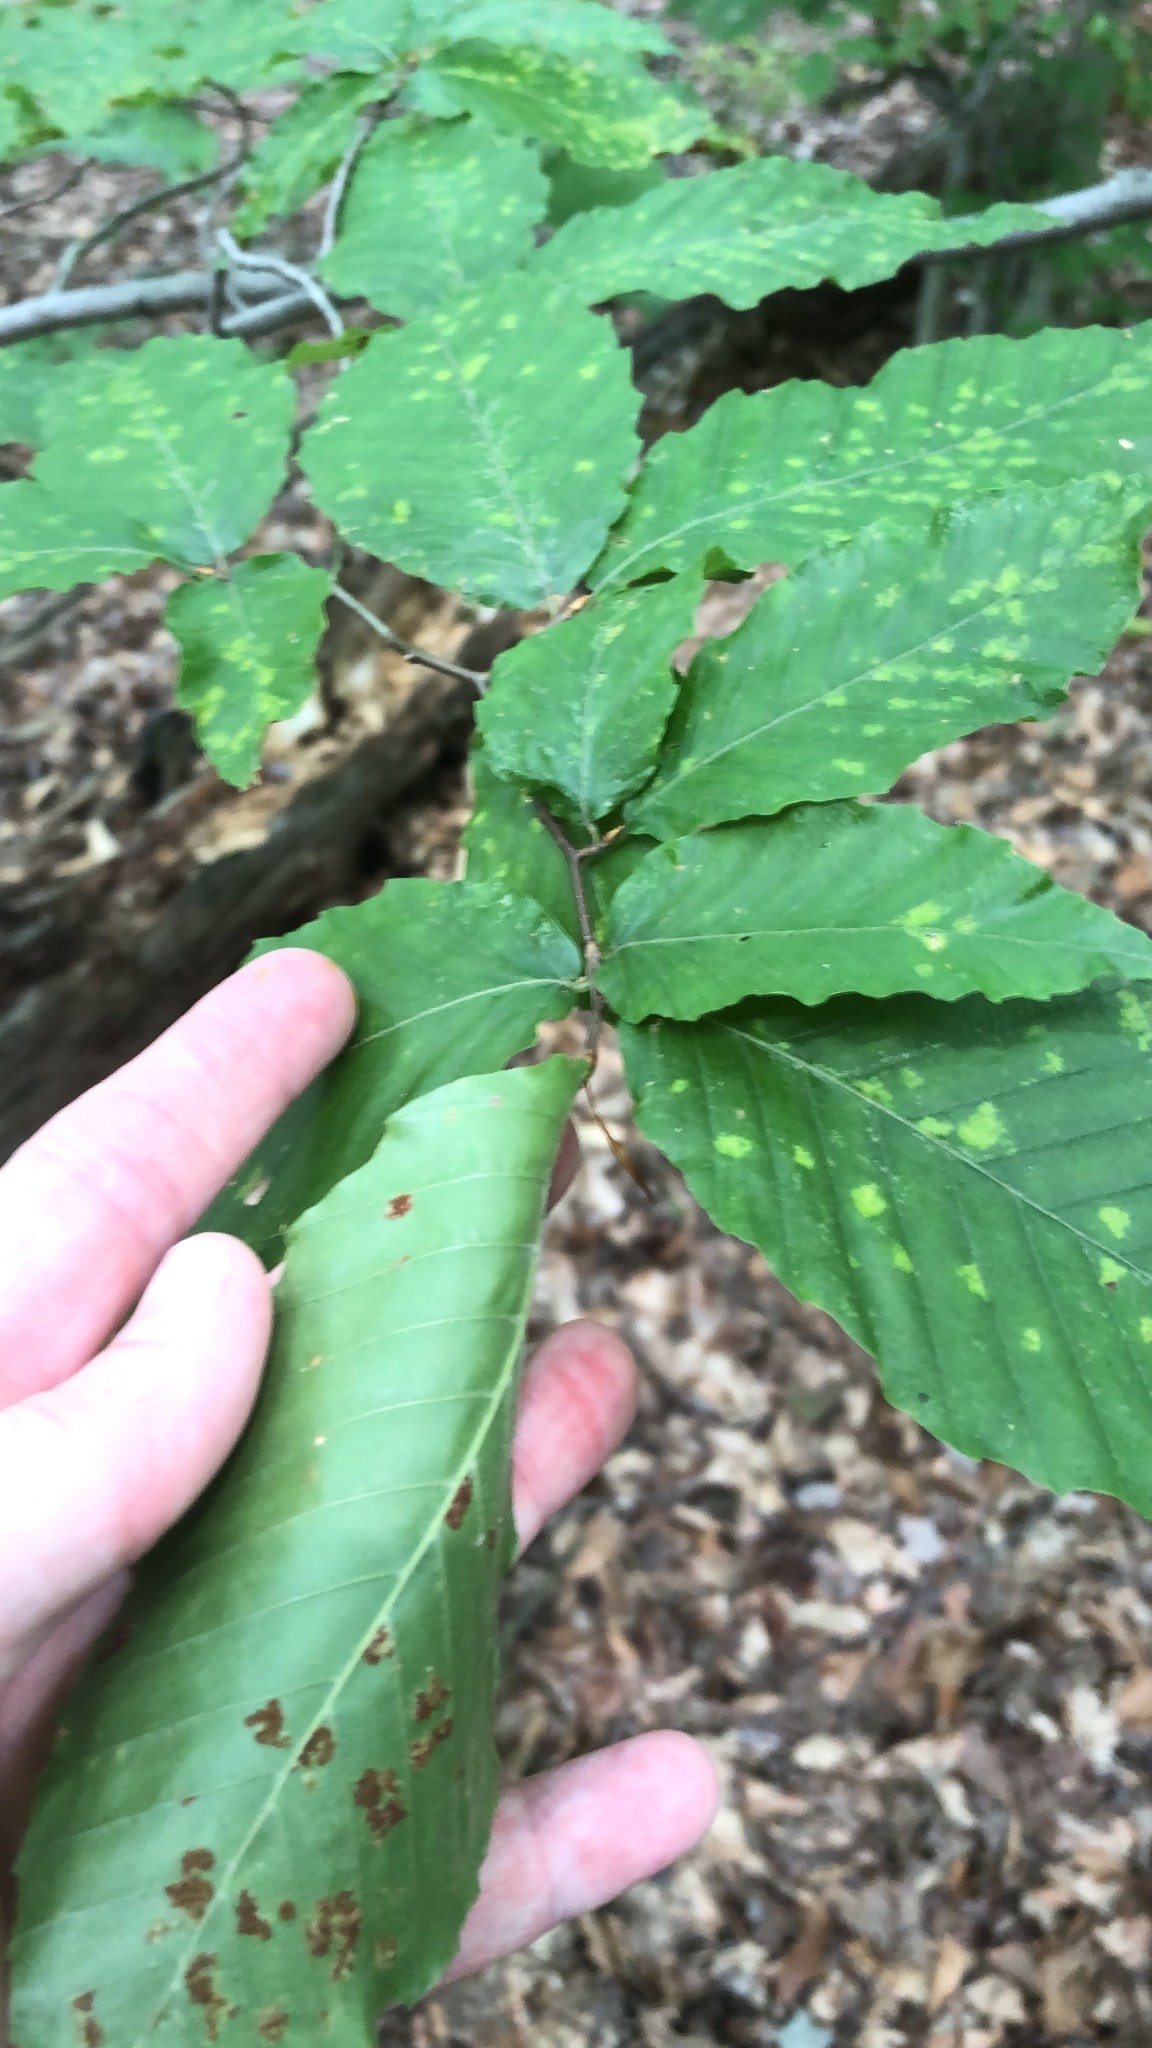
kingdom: Plantae
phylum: Tracheophyta
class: Magnoliopsida
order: Fagales
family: Fagaceae
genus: Fagus
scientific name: Fagus grandifolia
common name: American beech
